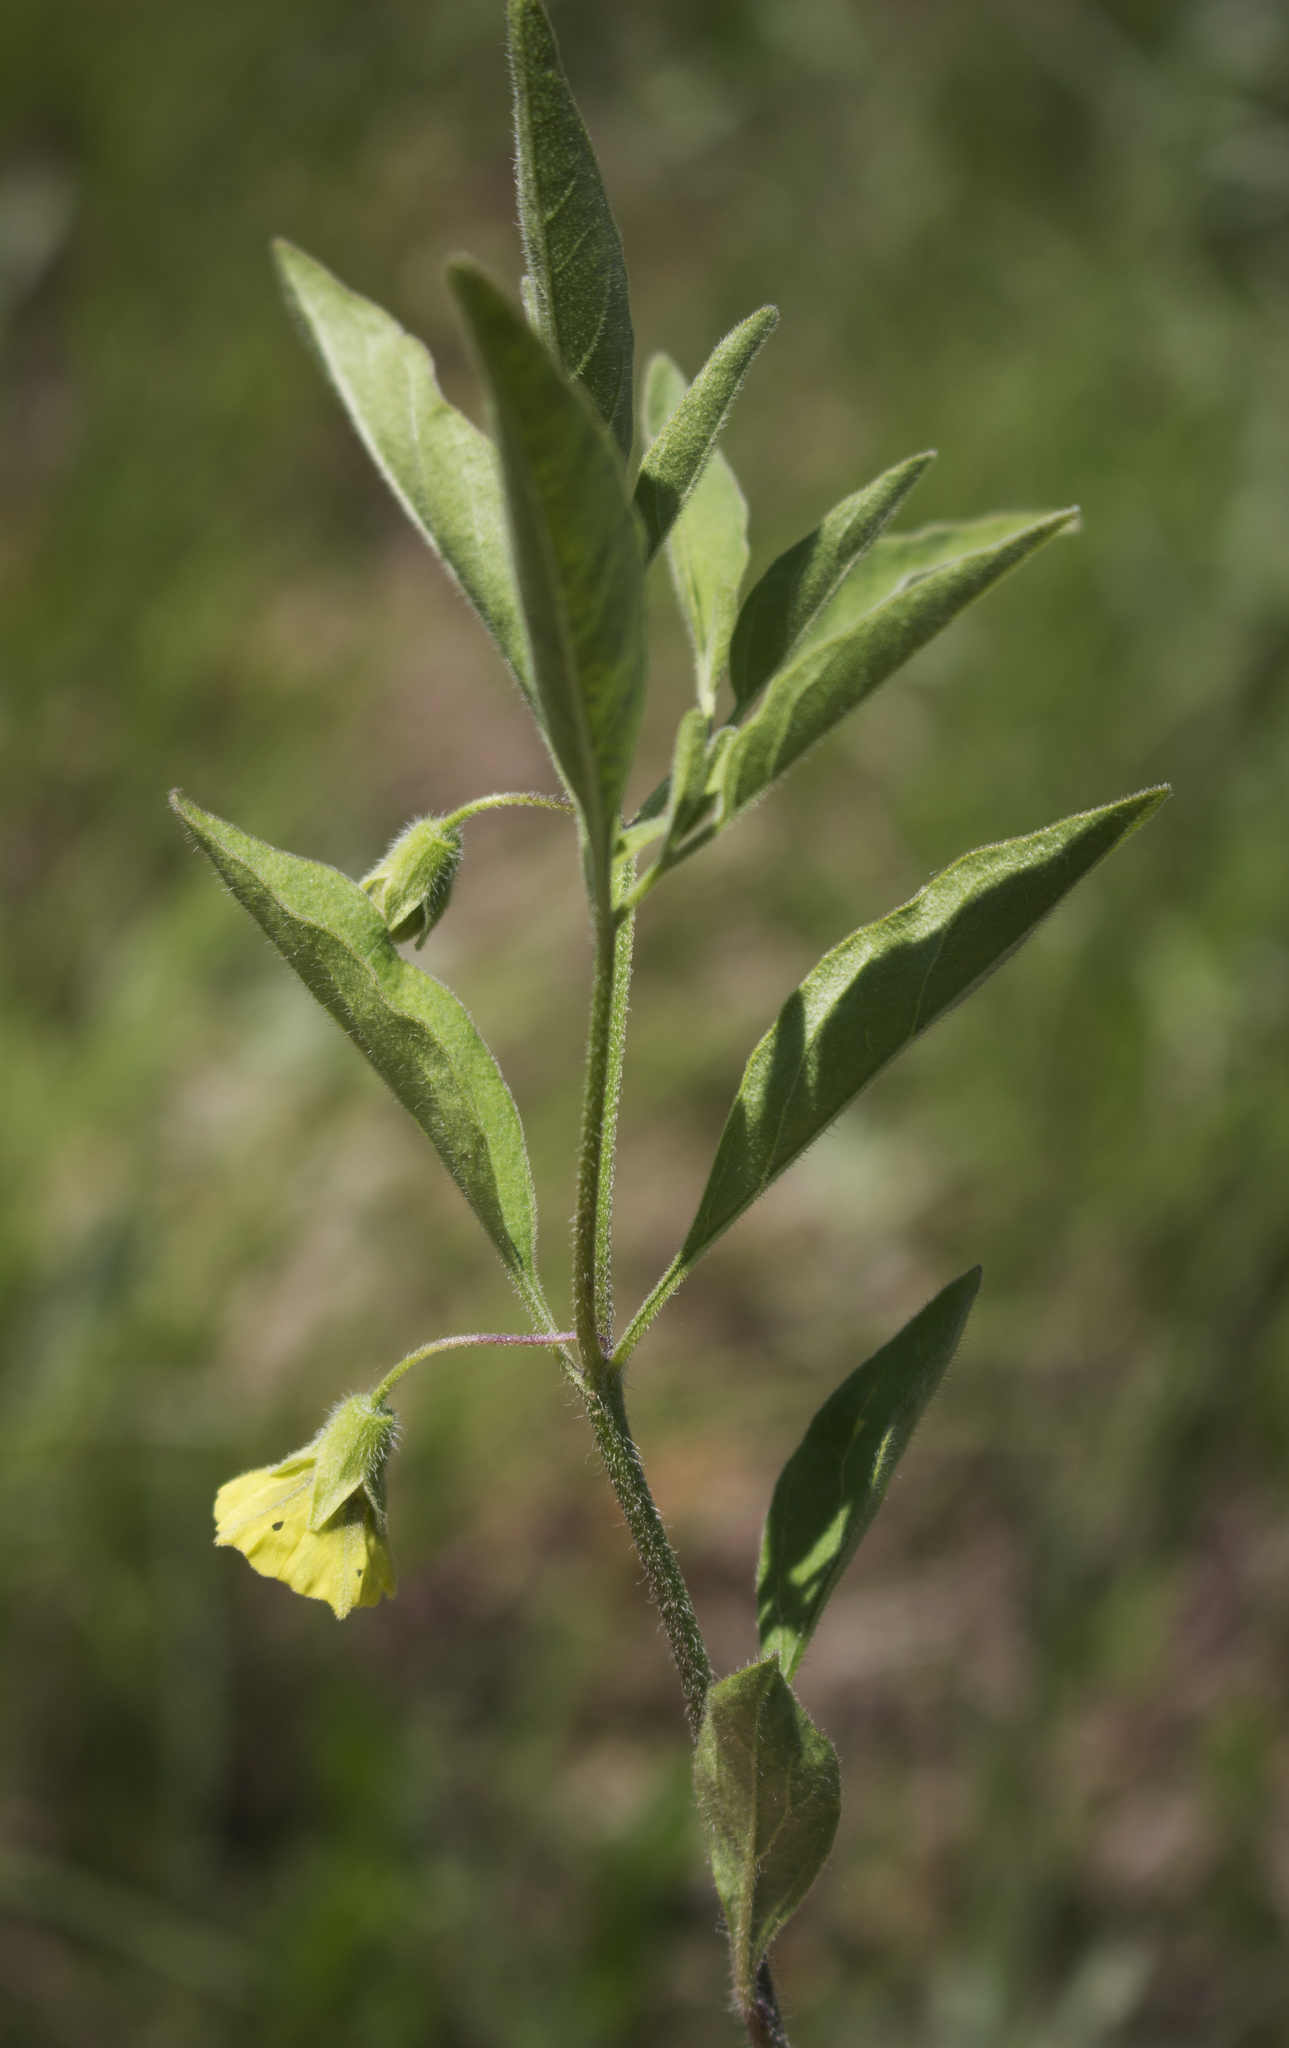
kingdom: Plantae
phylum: Tracheophyta
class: Magnoliopsida
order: Solanales
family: Solanaceae
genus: Physalis
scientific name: Physalis virginiana
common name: Virginia ground-cherry
